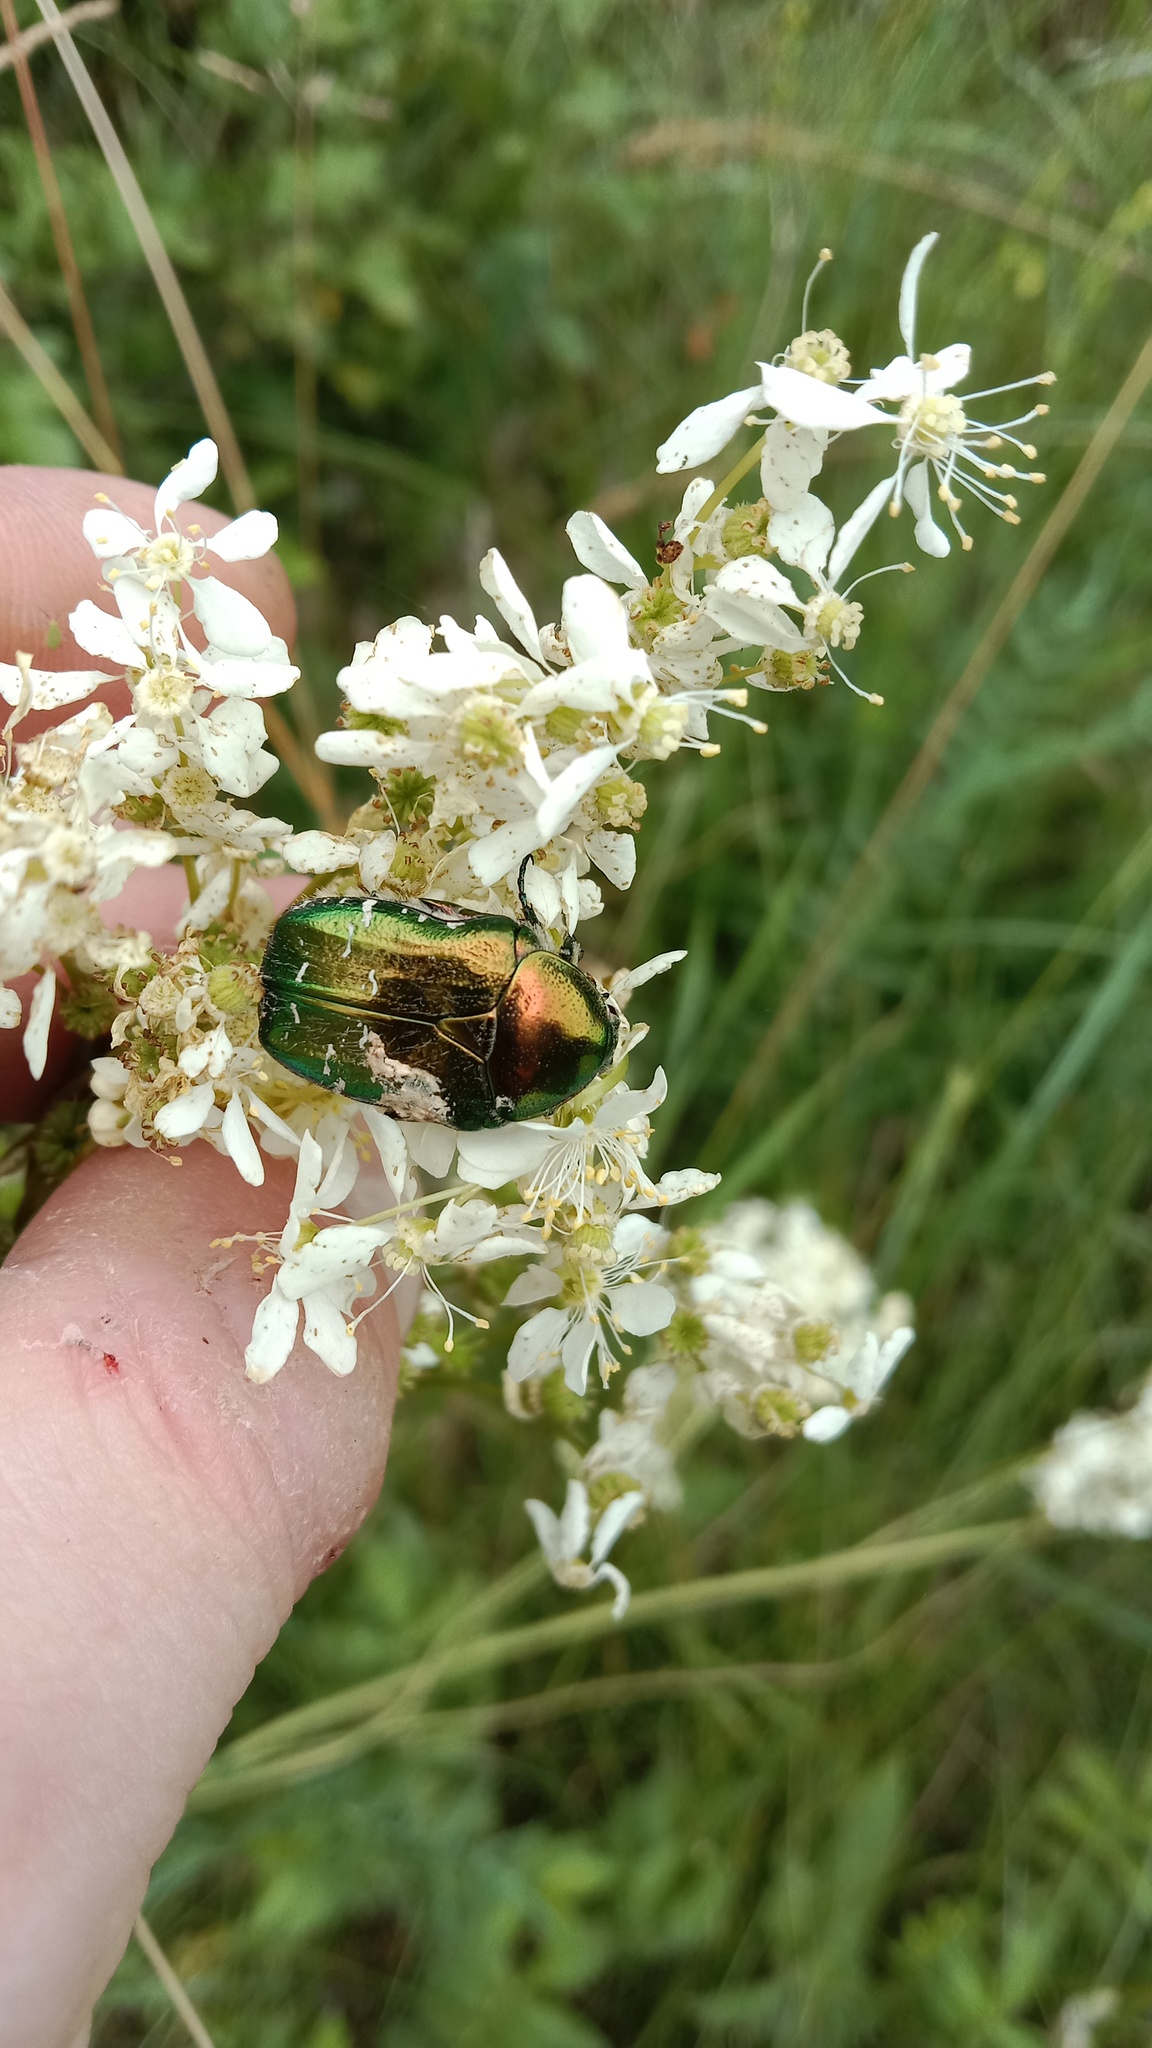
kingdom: Animalia
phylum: Arthropoda
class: Insecta
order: Coleoptera
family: Scarabaeidae
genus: Cetonia
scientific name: Cetonia aurata
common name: Rose chafer
